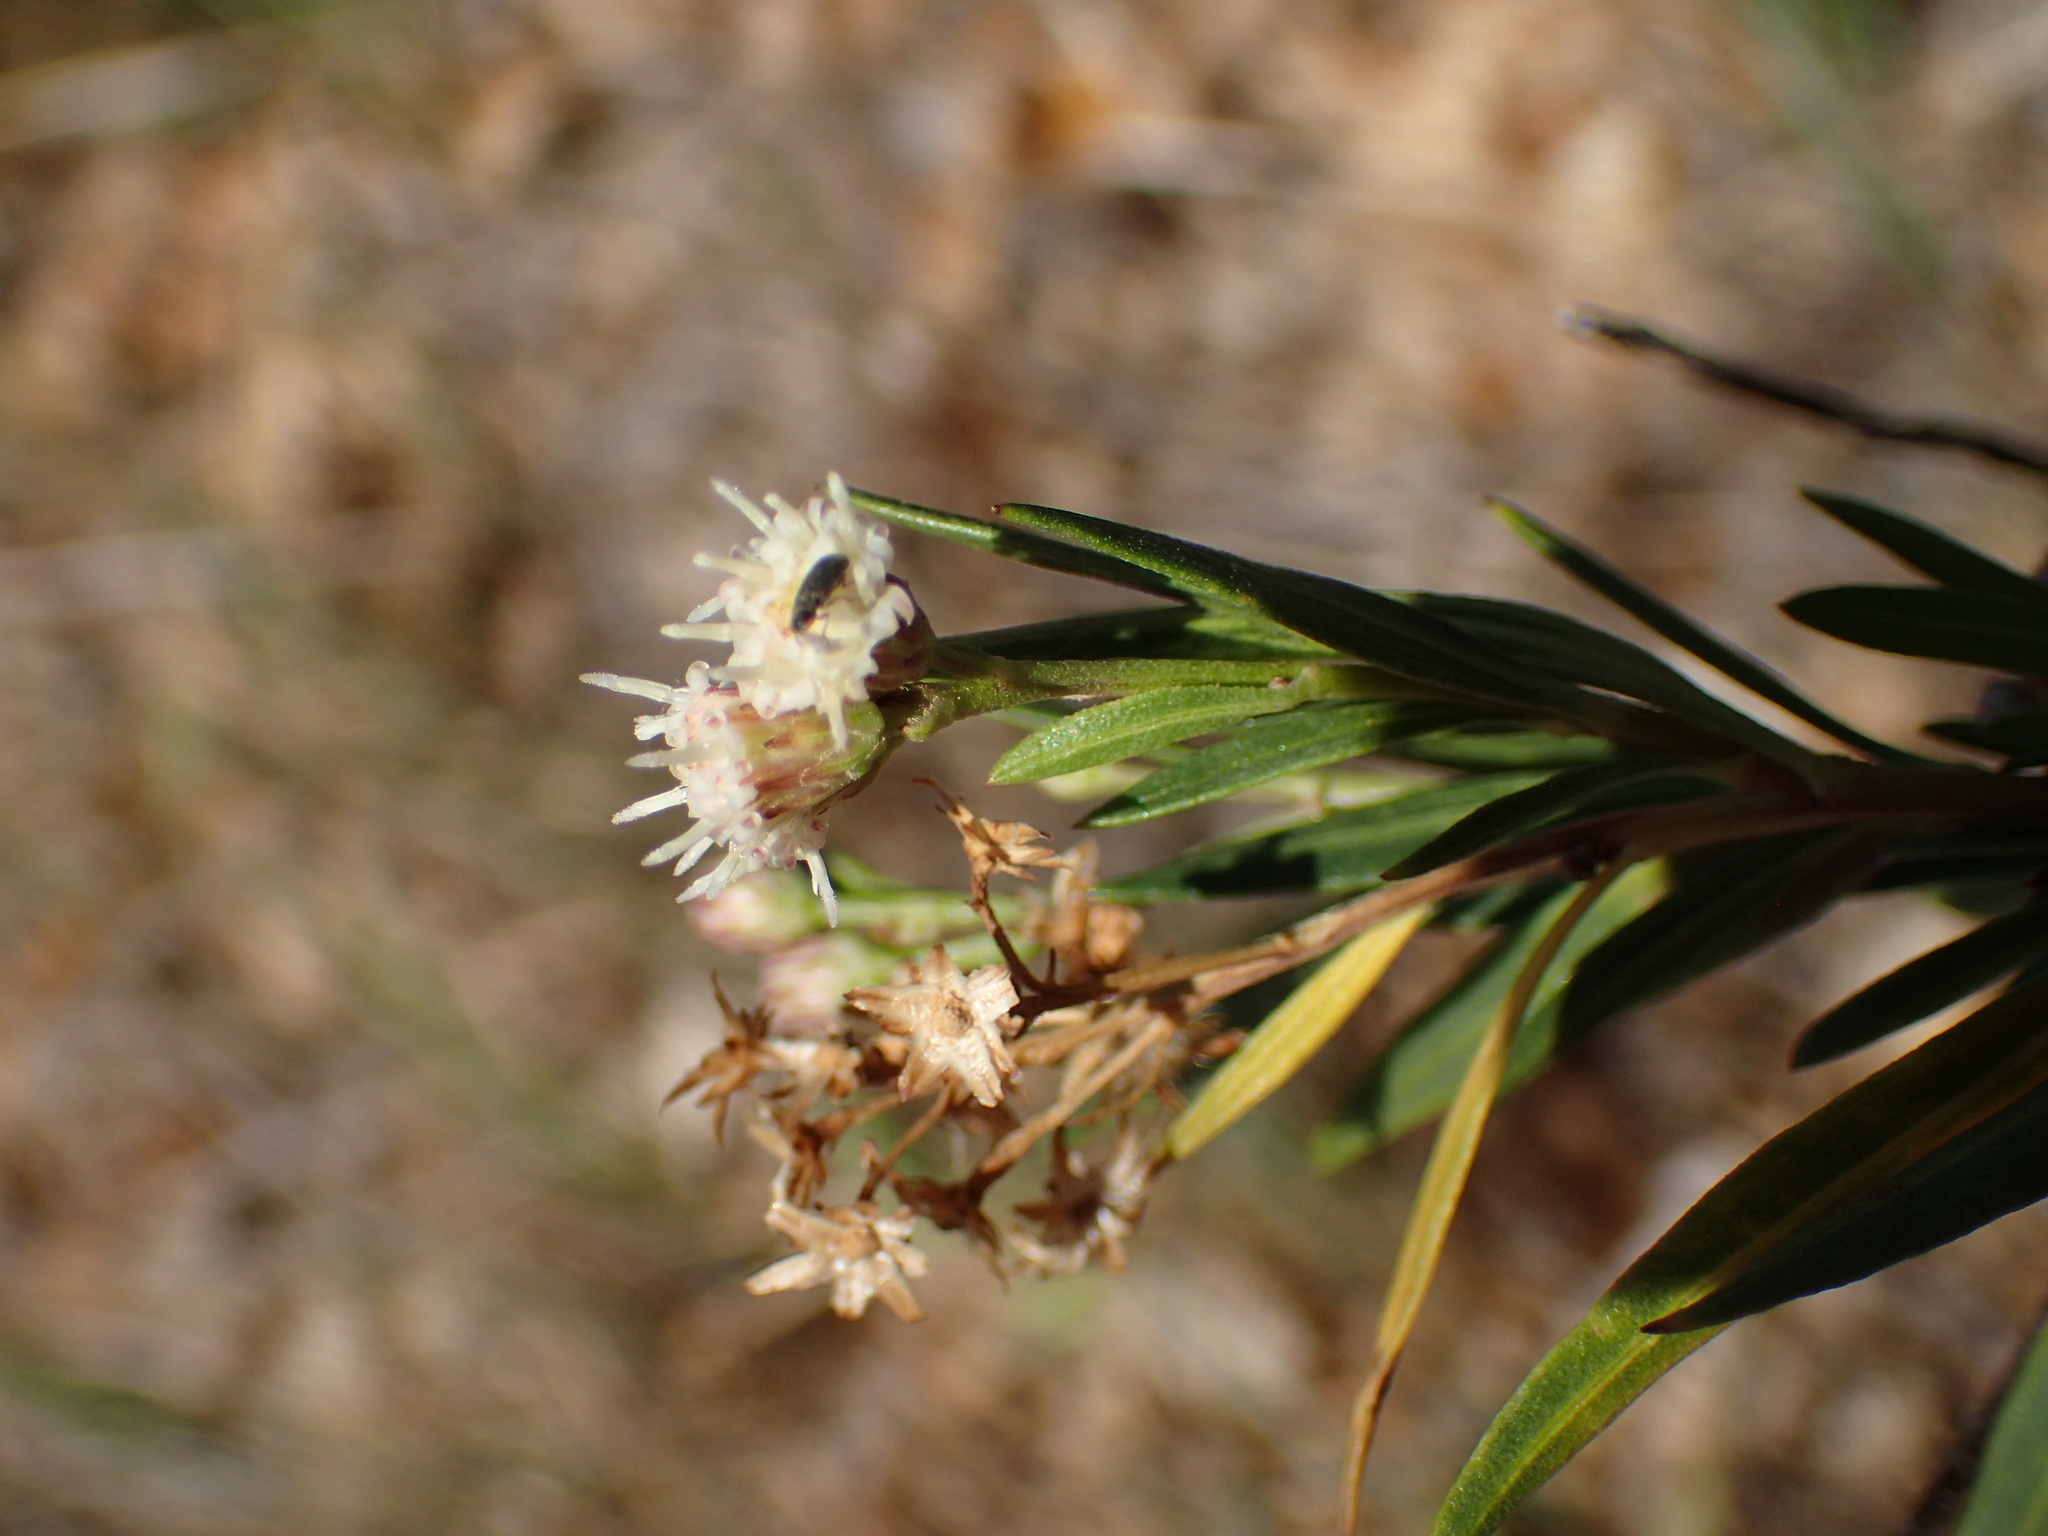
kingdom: Plantae
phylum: Tracheophyta
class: Magnoliopsida
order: Asterales
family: Asteraceae
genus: Baccharis
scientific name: Baccharis salicifolia
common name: Sticky baccharis
